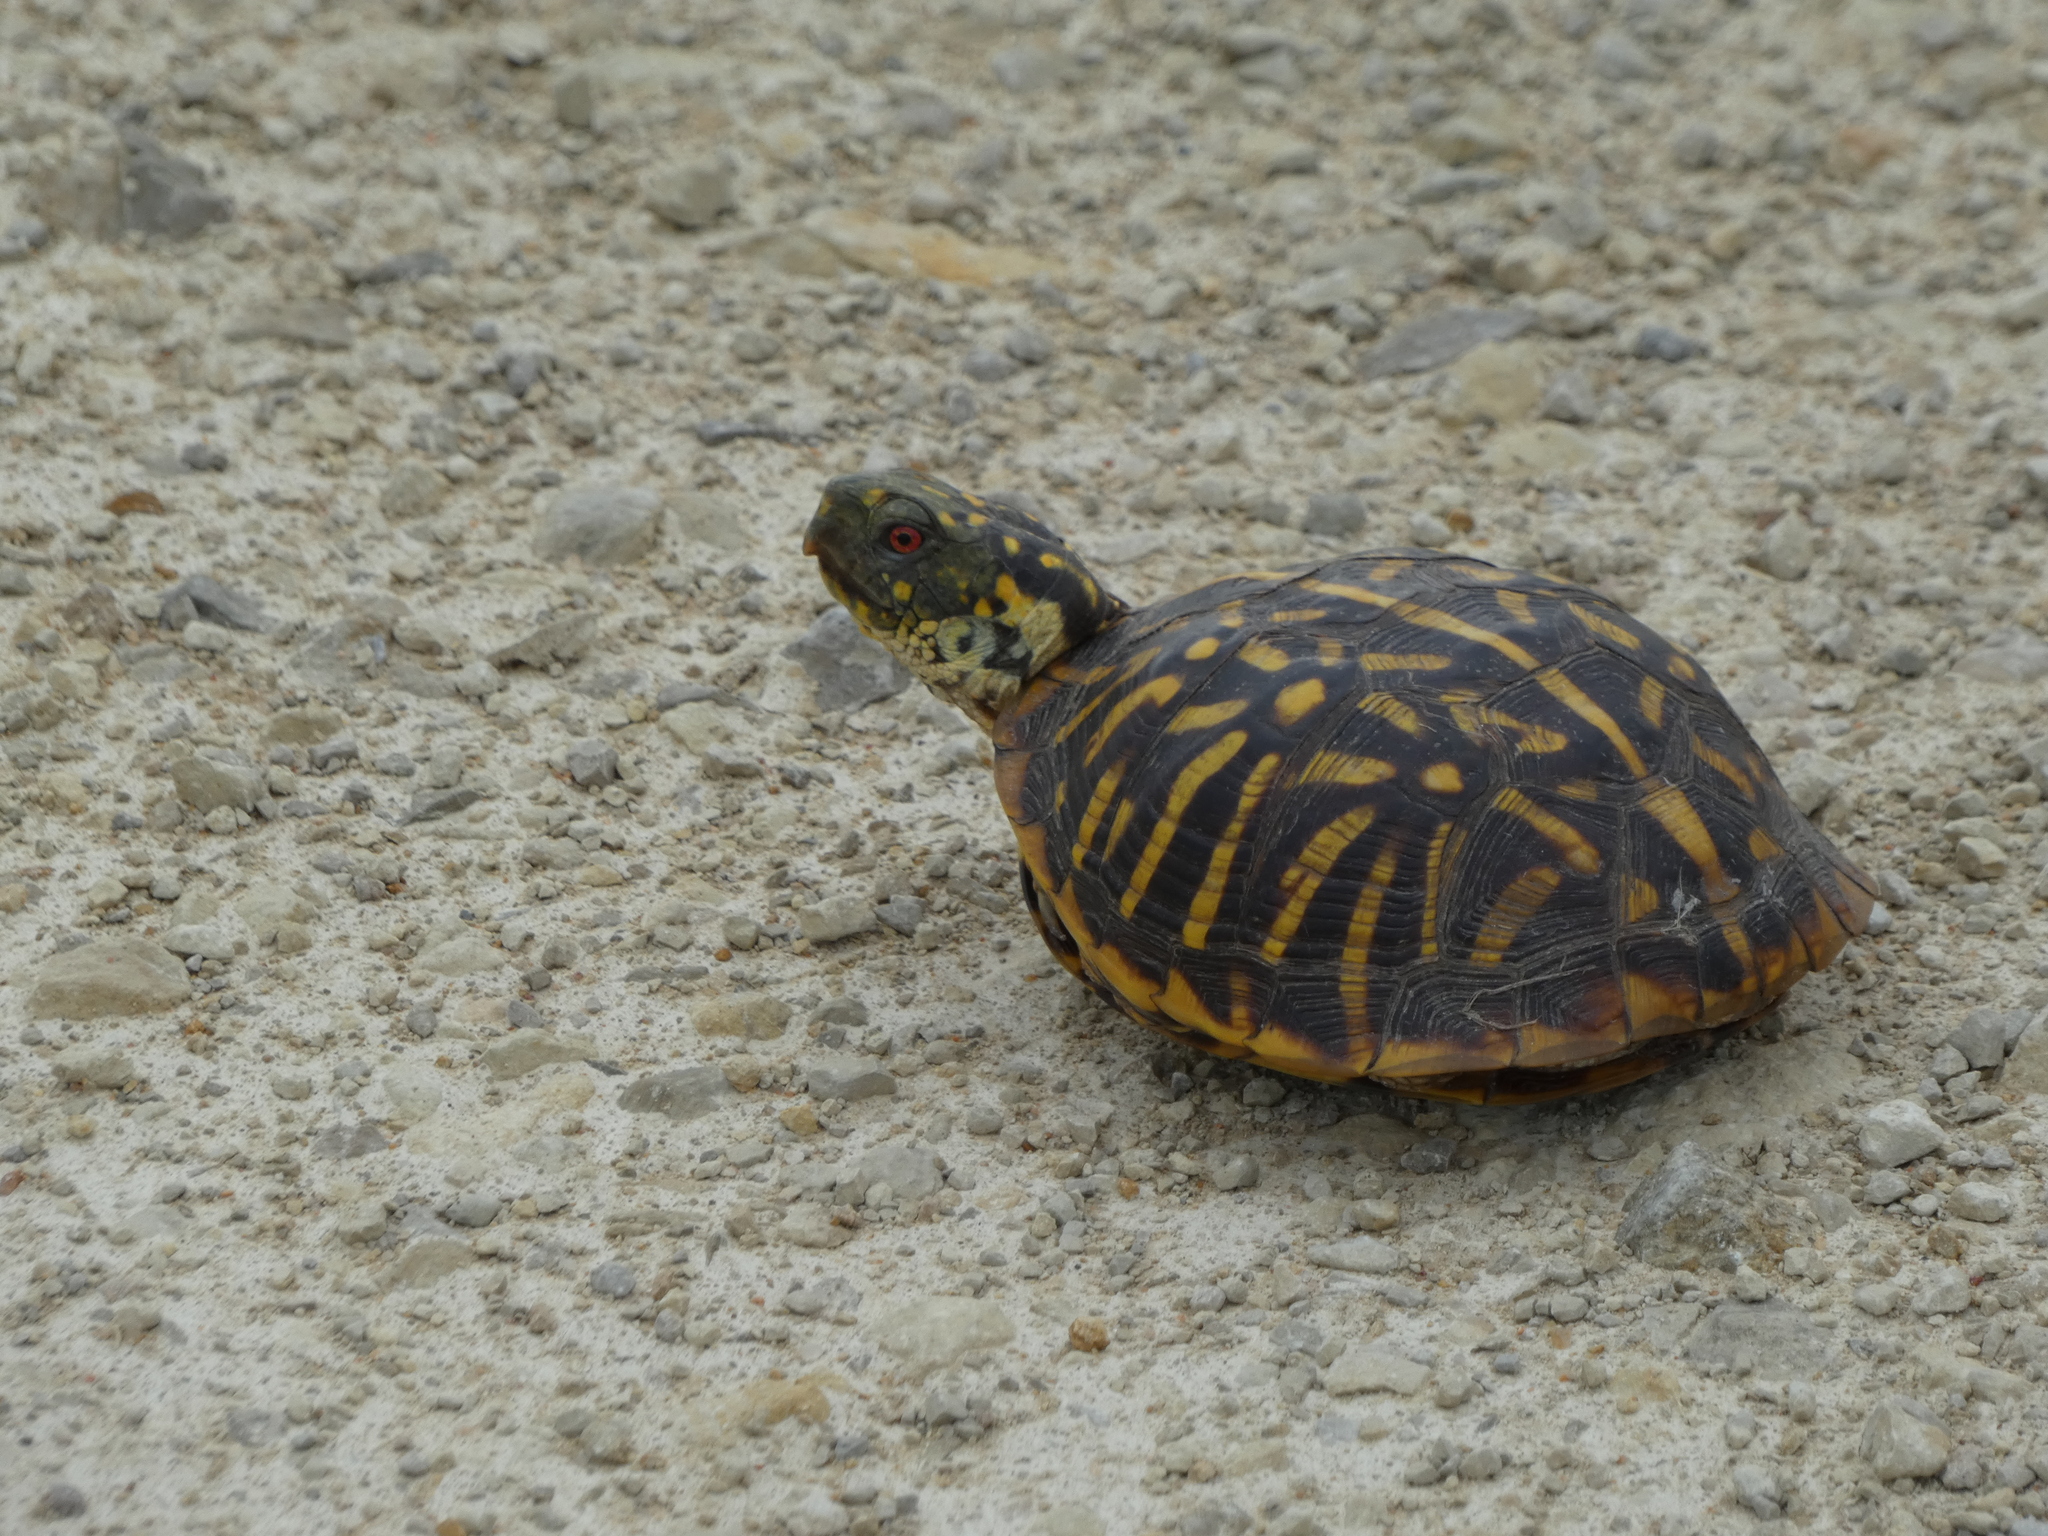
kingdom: Animalia
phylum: Chordata
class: Testudines
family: Emydidae
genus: Terrapene
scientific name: Terrapene ornata
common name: Western box turtle
